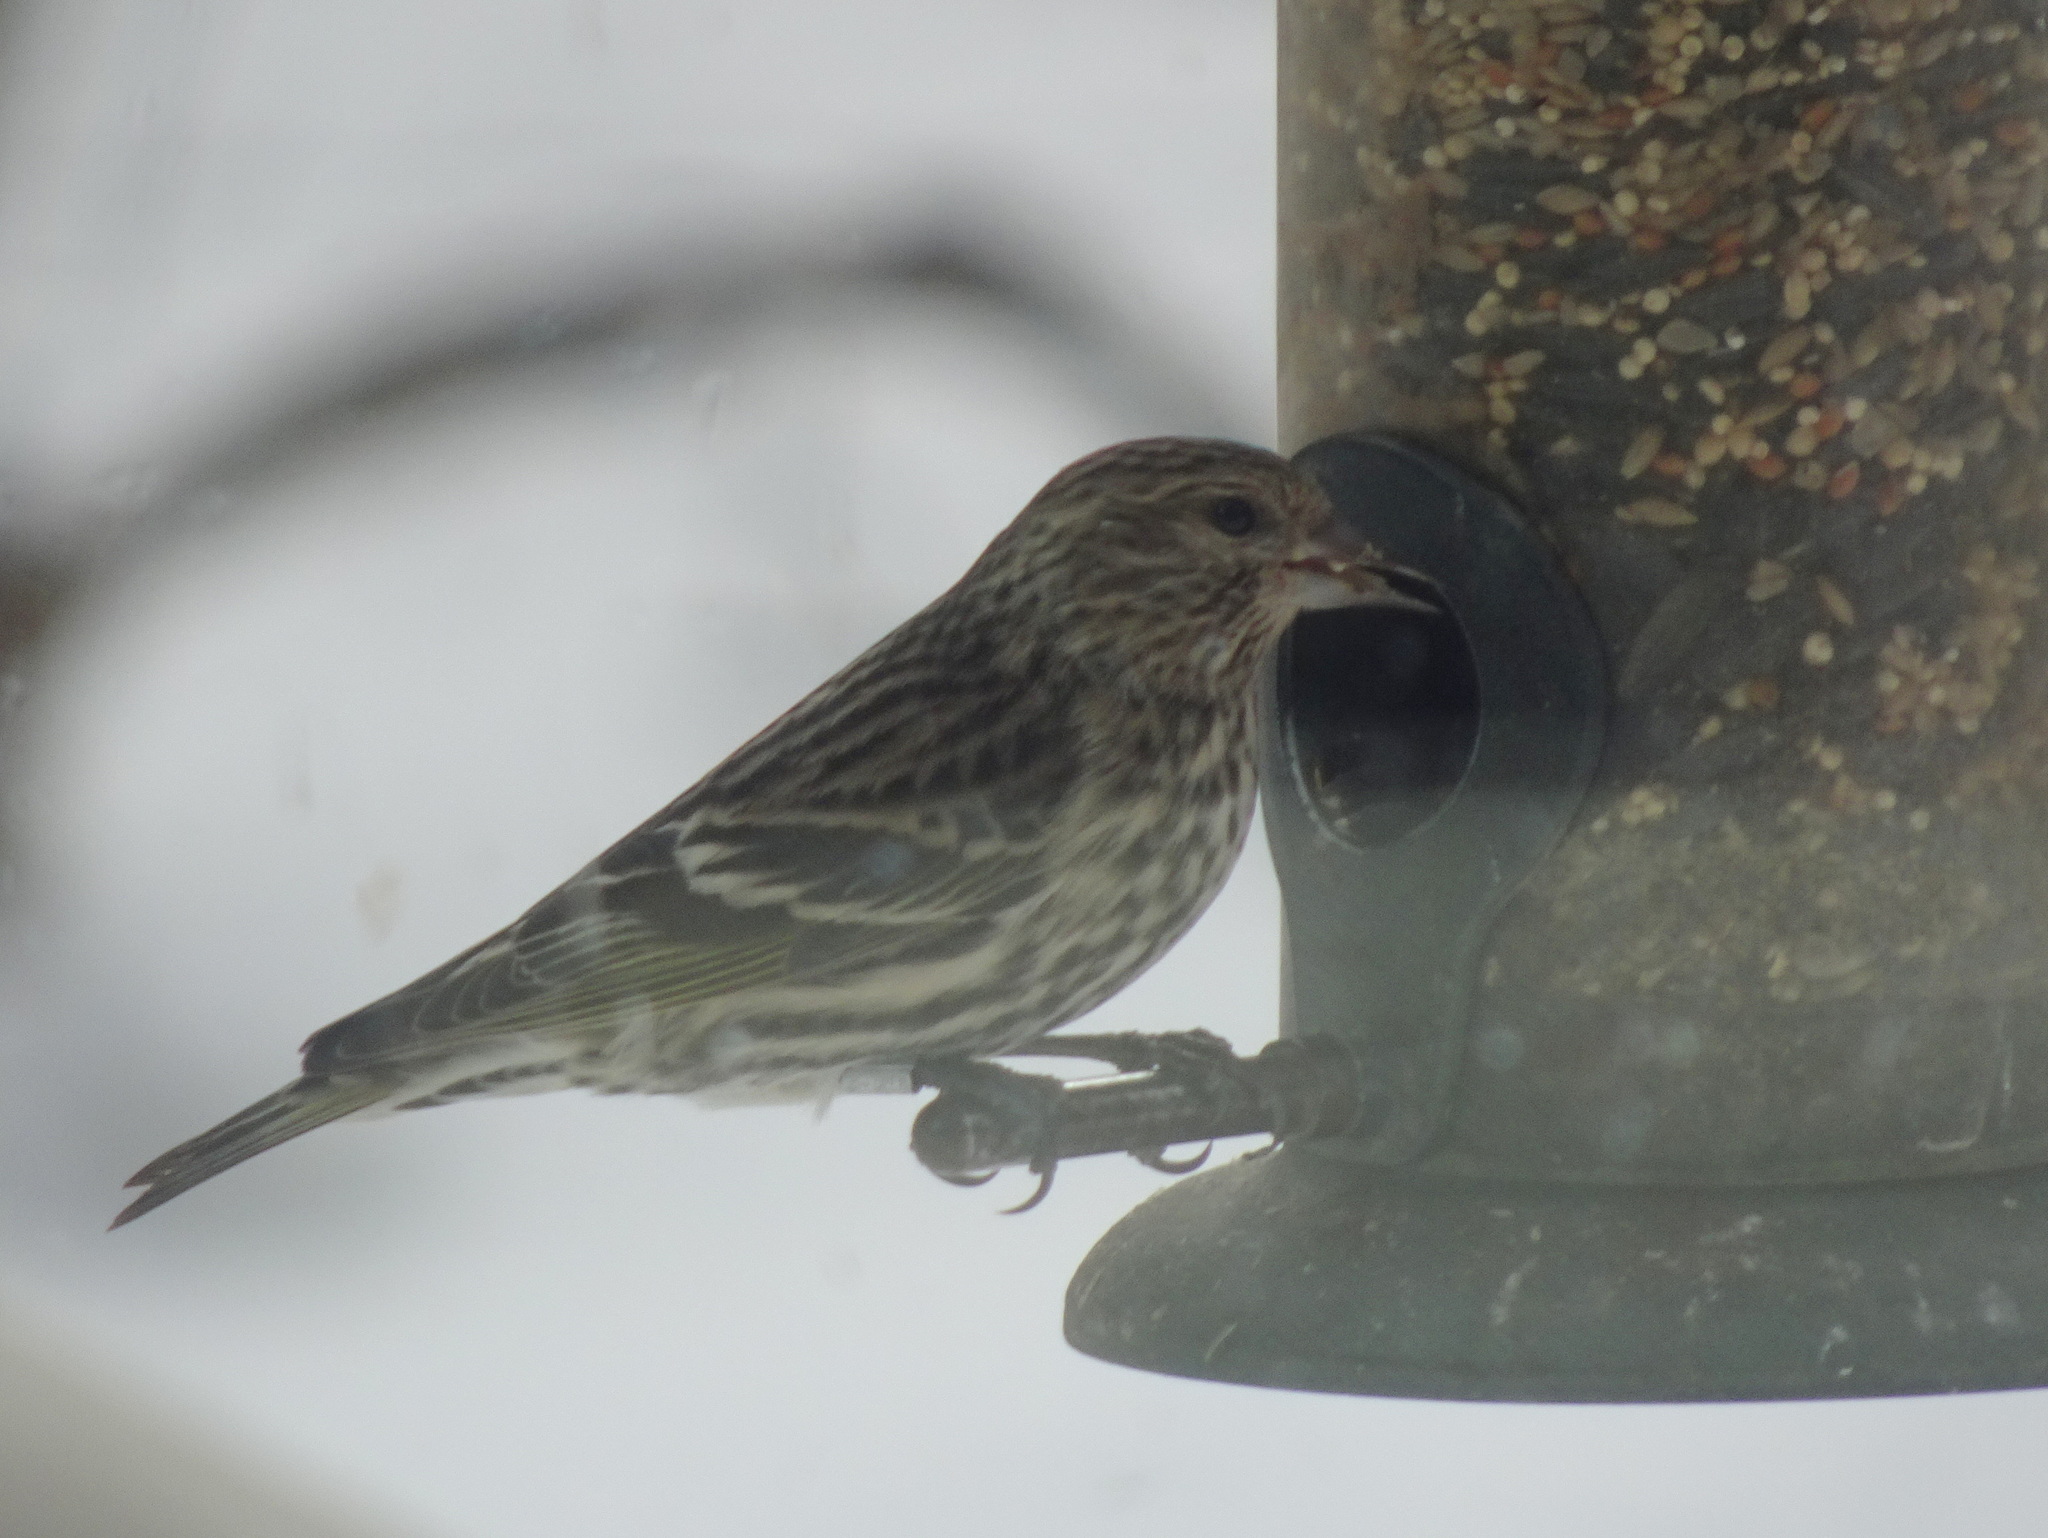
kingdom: Animalia
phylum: Chordata
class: Aves
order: Passeriformes
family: Fringillidae
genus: Spinus
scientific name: Spinus pinus
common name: Pine siskin
